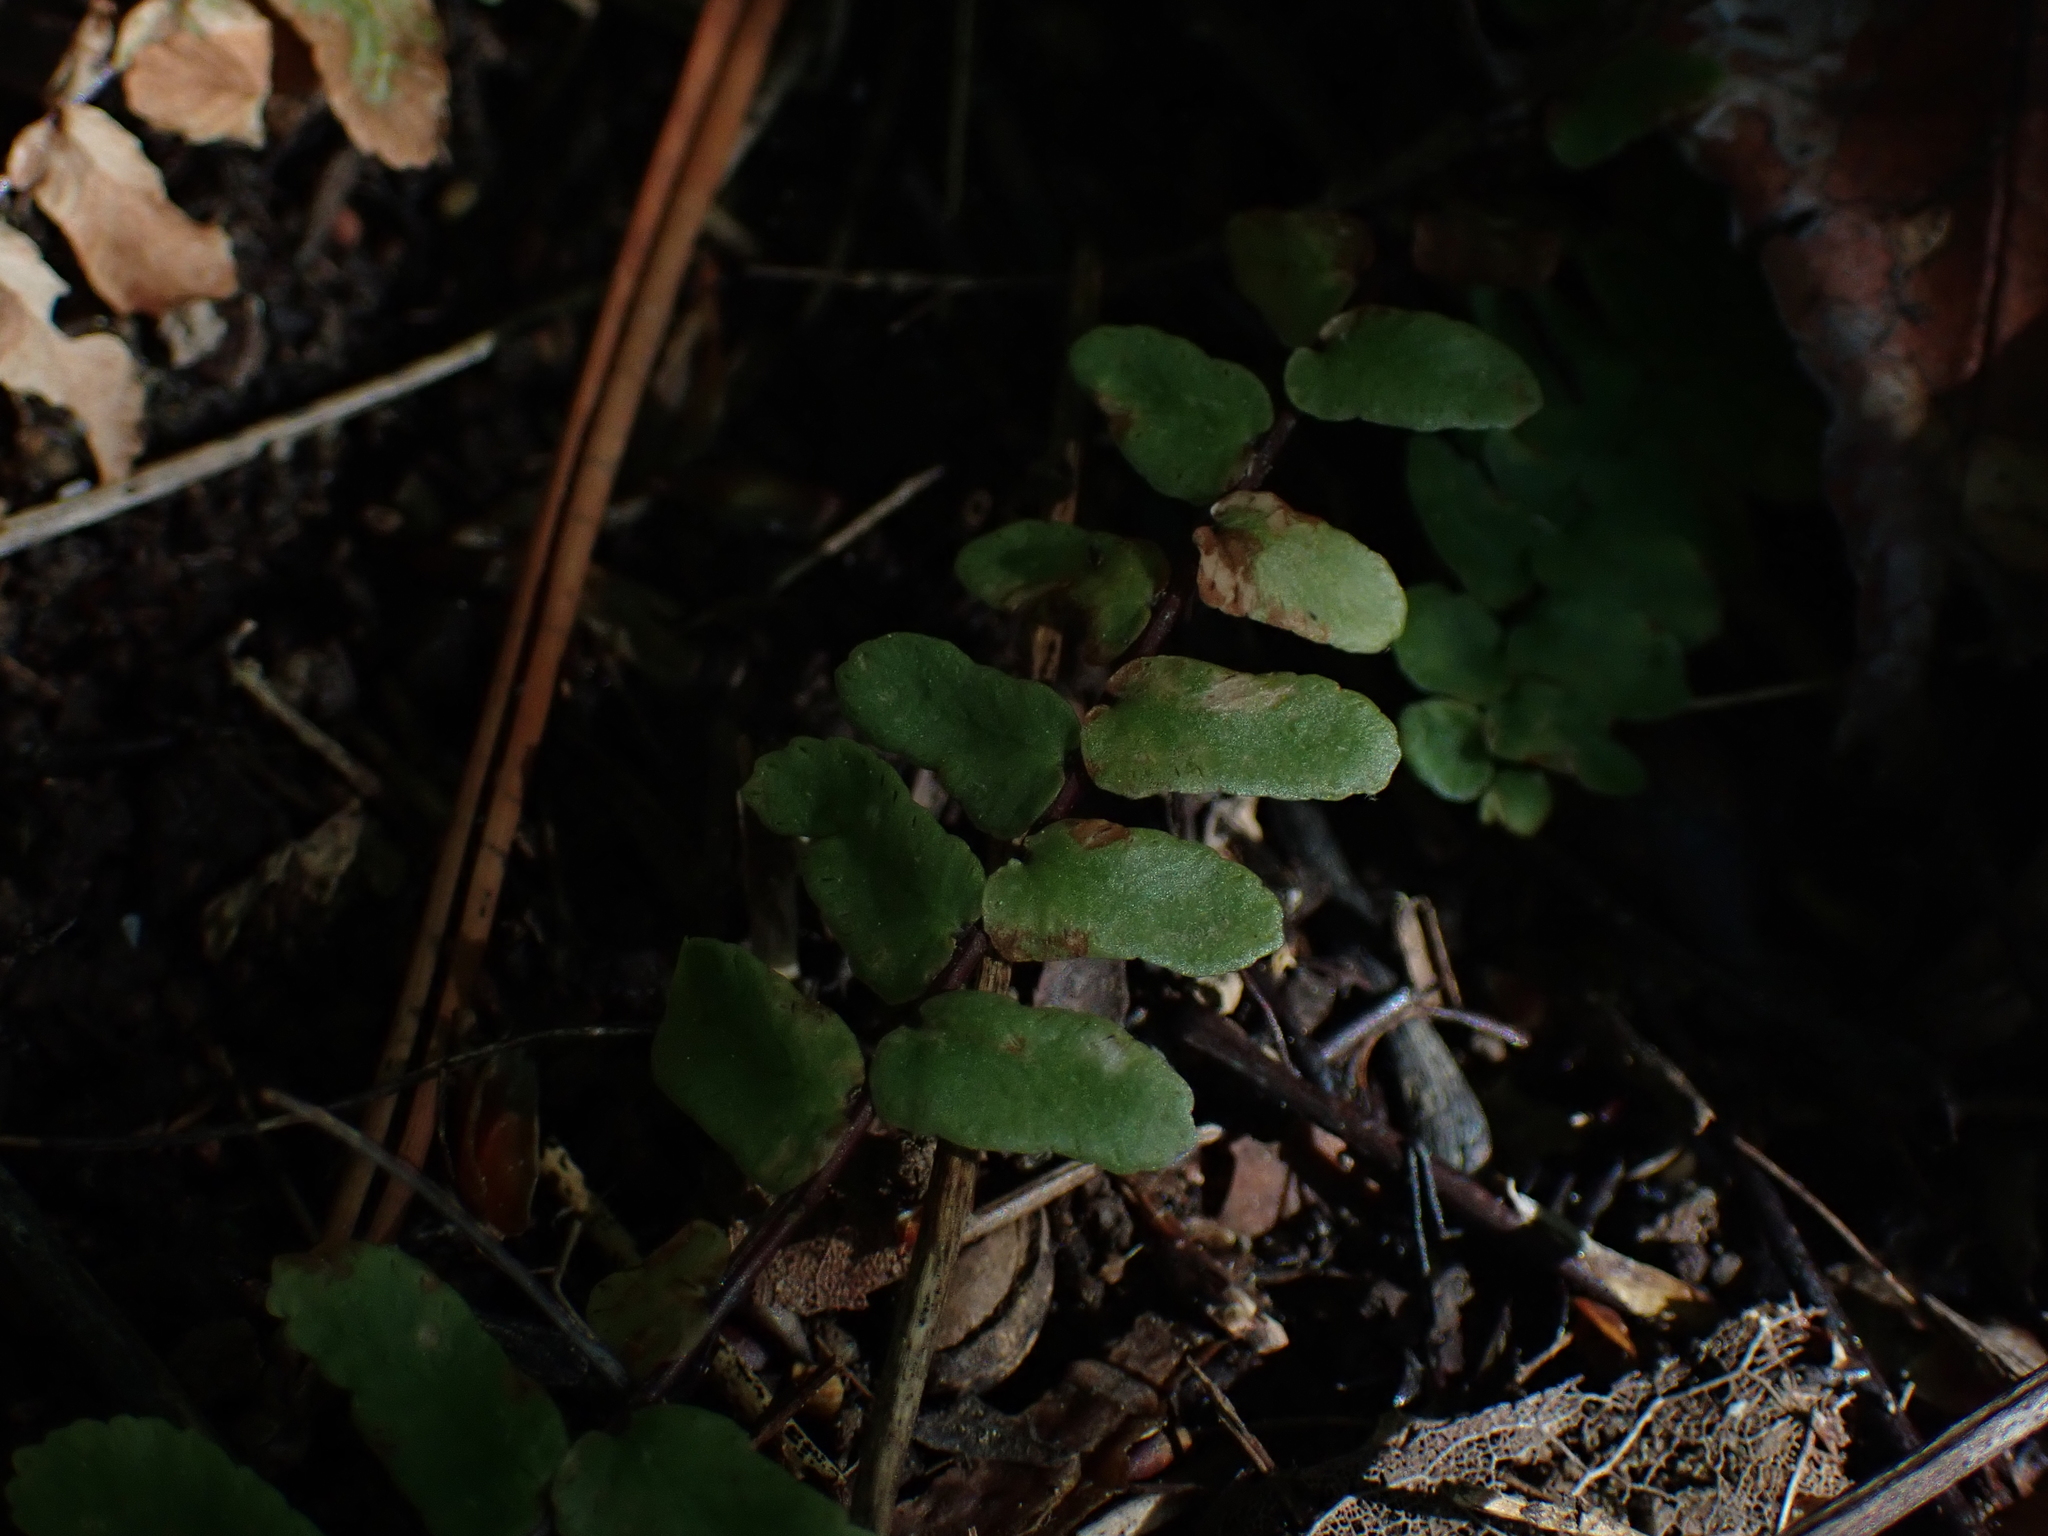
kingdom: Plantae
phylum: Tracheophyta
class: Polypodiopsida
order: Polypodiales
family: Aspleniaceae
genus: Asplenium
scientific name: Asplenium platyneuron
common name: Ebony spleenwort
